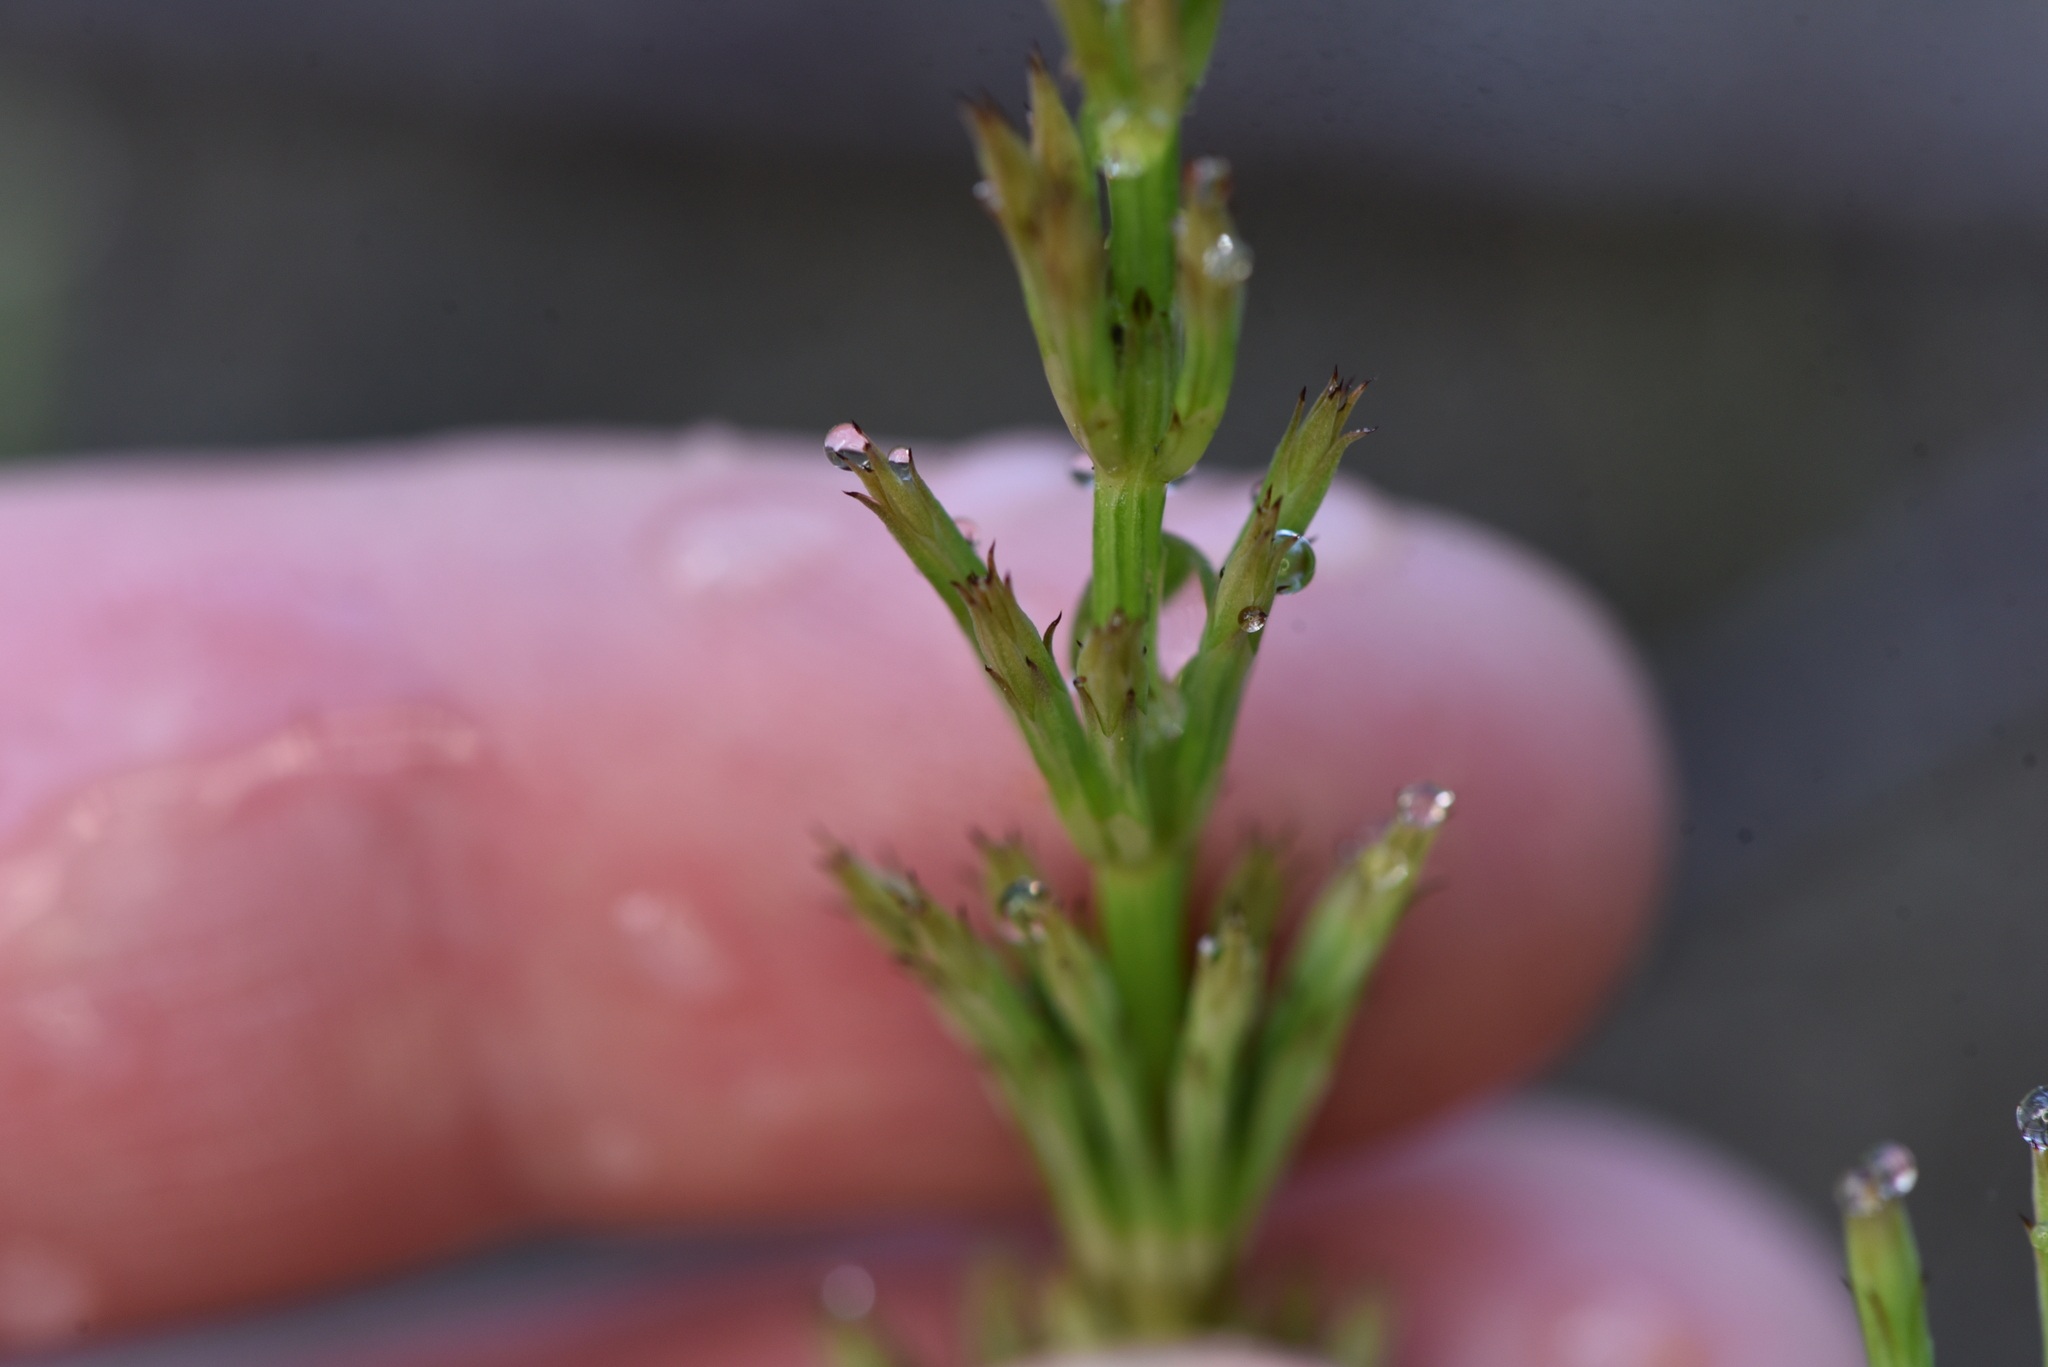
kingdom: Plantae
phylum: Tracheophyta
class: Polypodiopsida
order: Equisetales
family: Equisetaceae
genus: Equisetum
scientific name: Equisetum arvense
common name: Field horsetail
